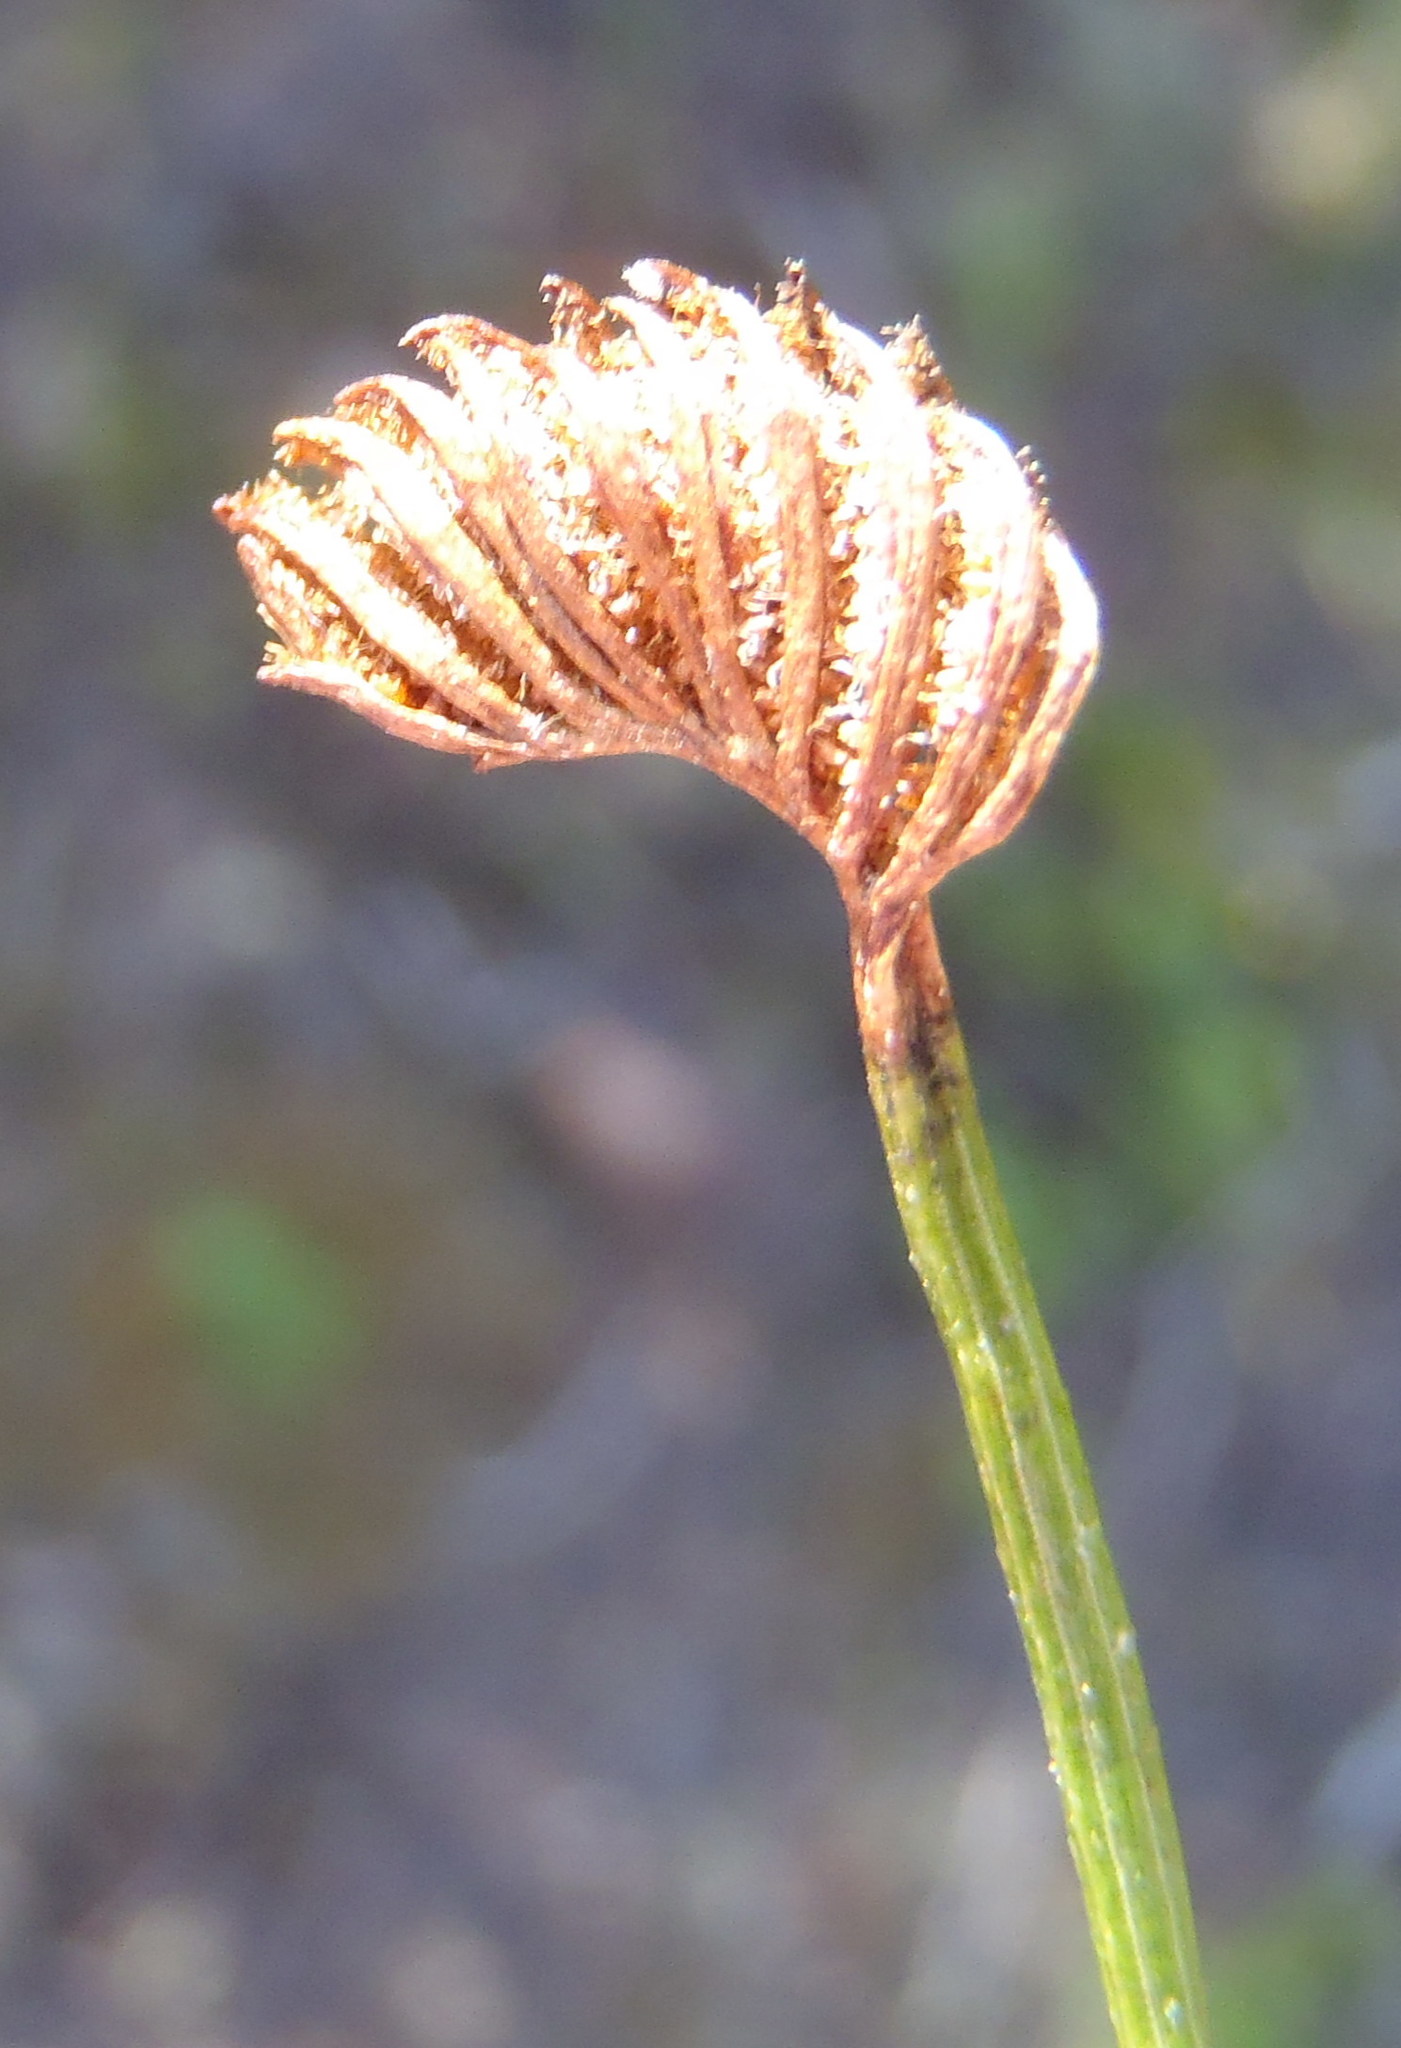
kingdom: Plantae
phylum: Tracheophyta
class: Polypodiopsida
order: Schizaeales
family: Schizaeaceae
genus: Schizaea
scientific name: Schizaea pectinata
